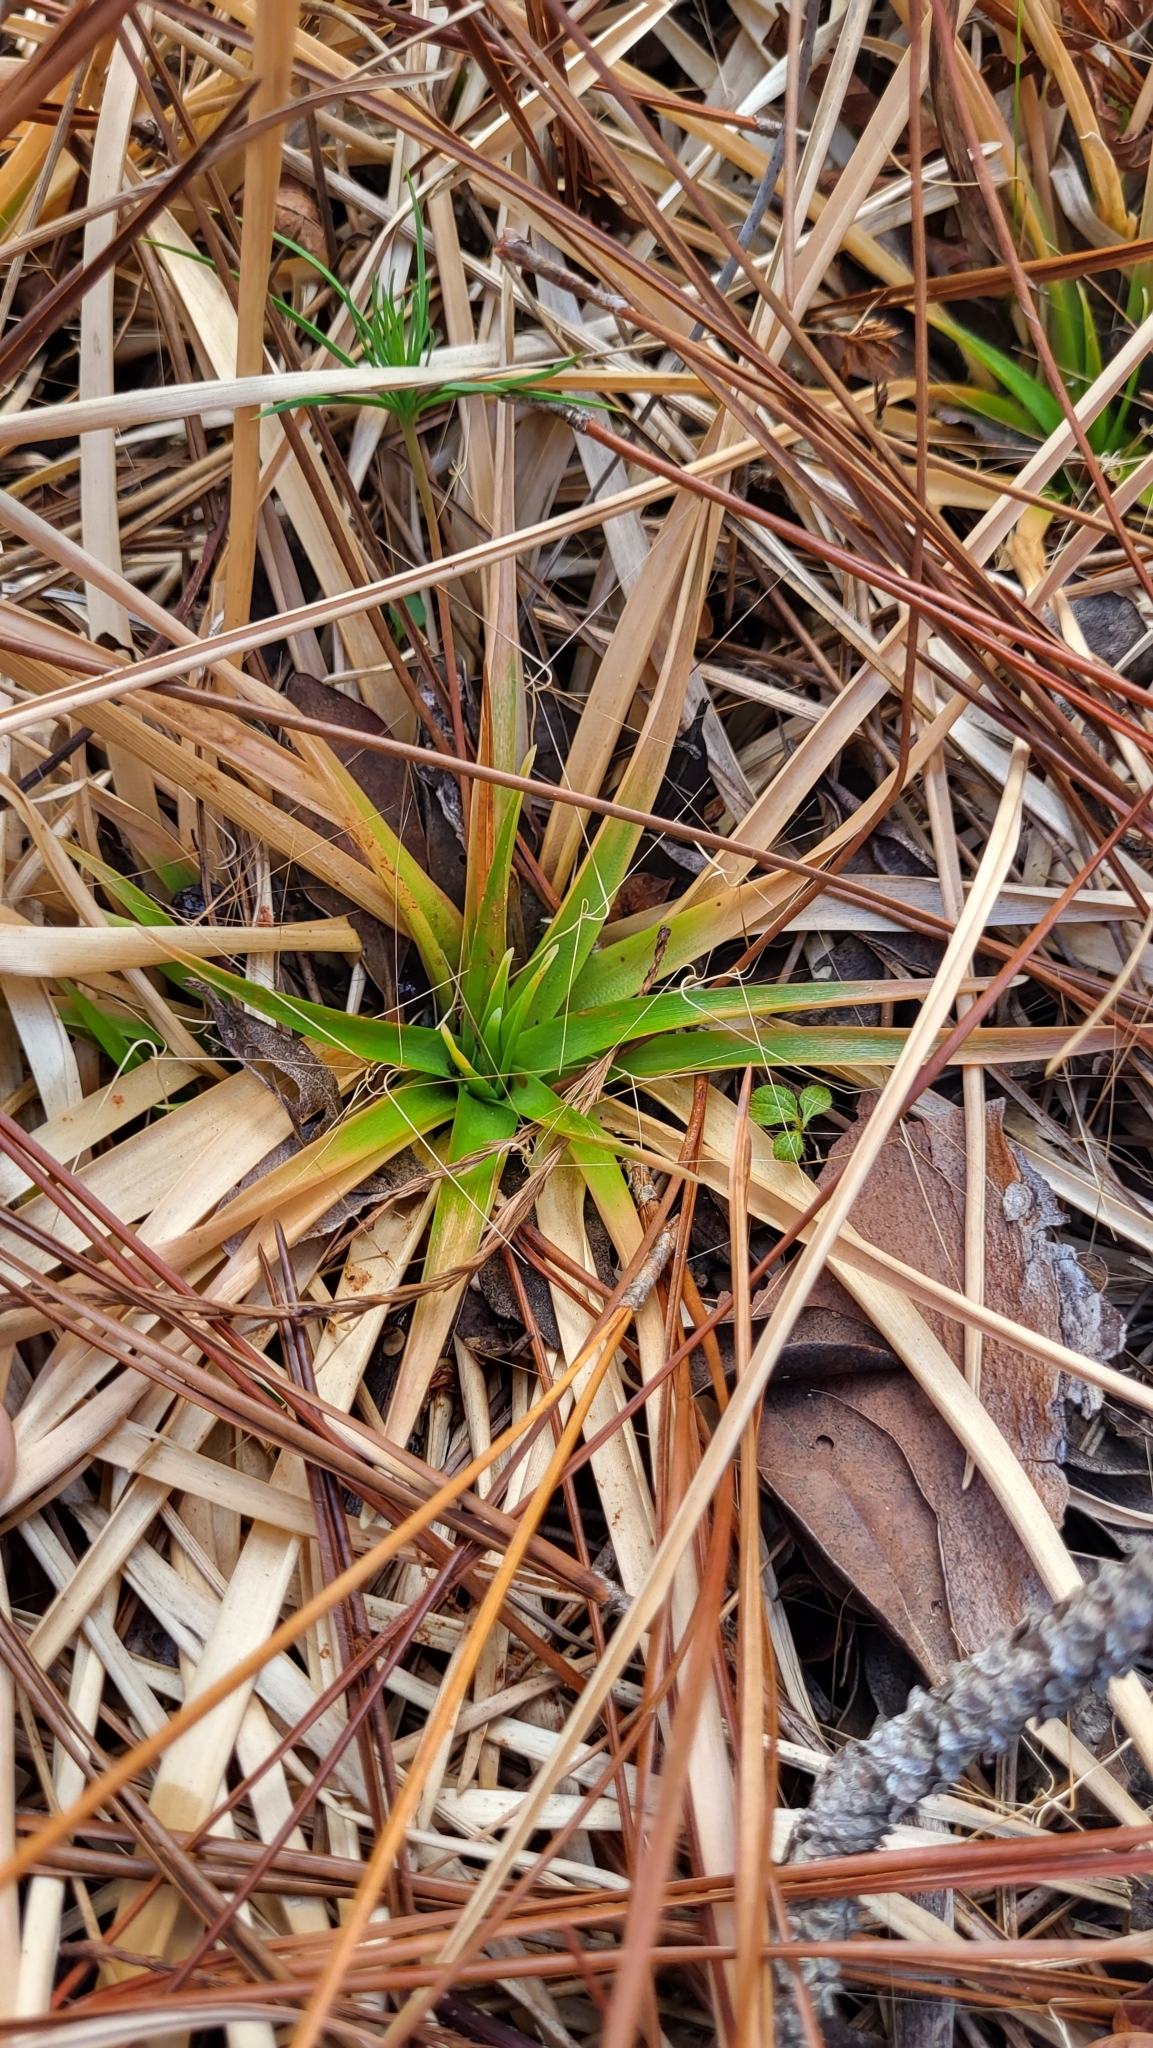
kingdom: Plantae
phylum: Tracheophyta
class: Liliopsida
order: Poales
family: Eriocaulaceae
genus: Eriocaulon
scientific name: Eriocaulon decangulare
